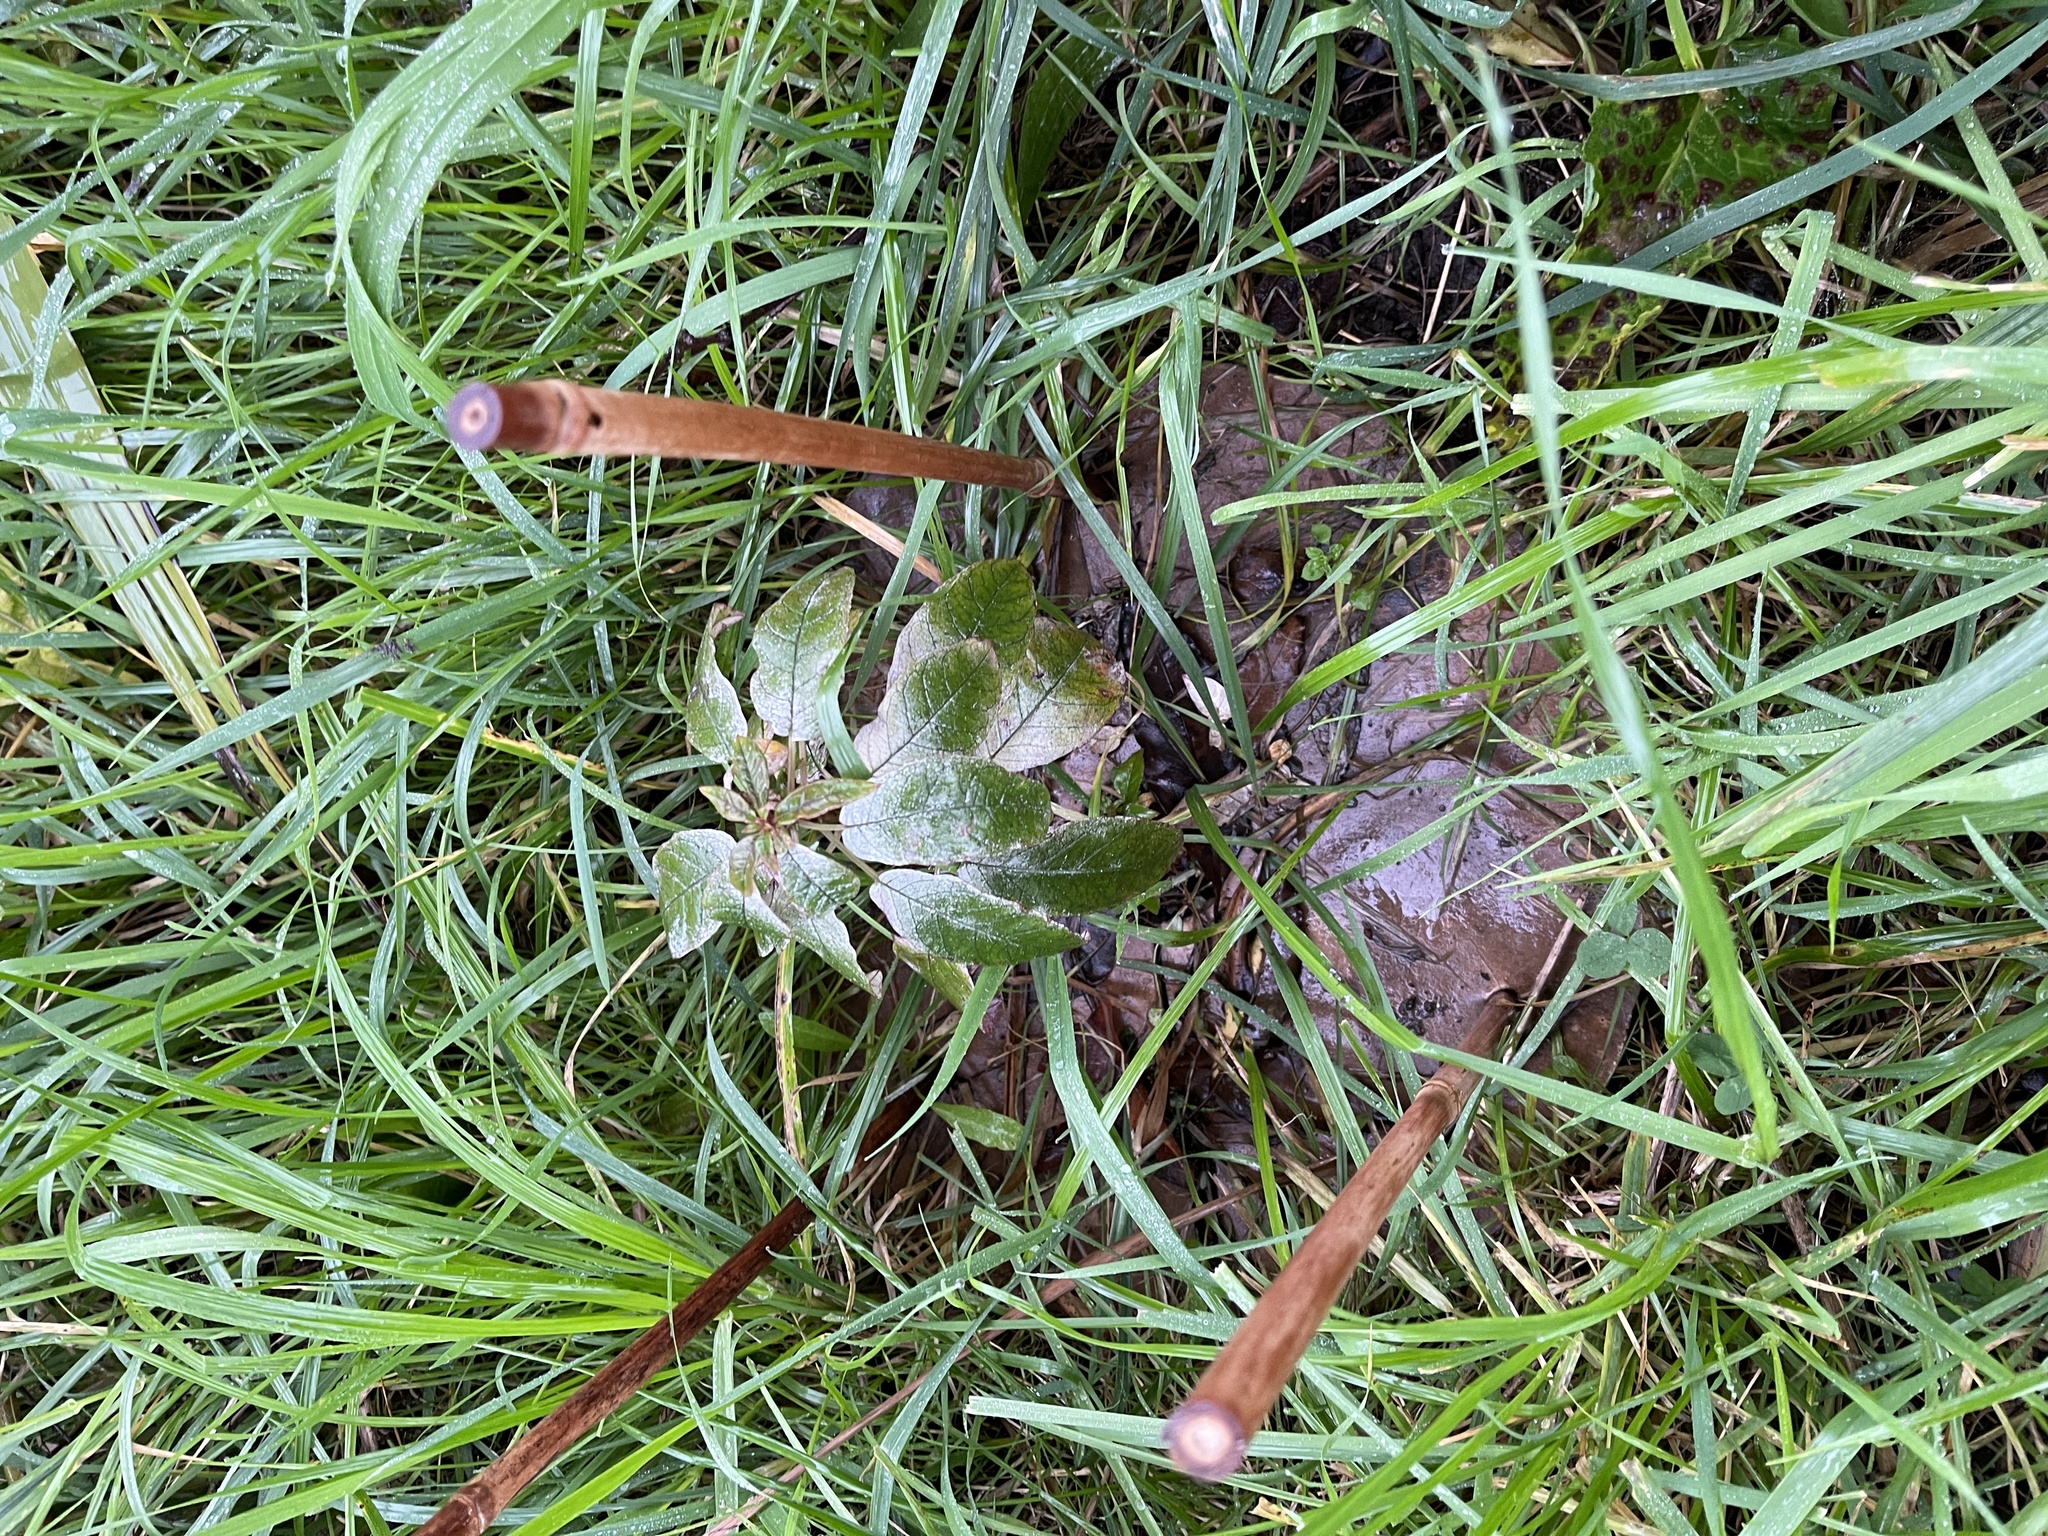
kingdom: Plantae
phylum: Tracheophyta
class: Magnoliopsida
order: Myrtales
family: Onagraceae
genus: Fuchsia
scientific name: Fuchsia excorticata
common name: Tree fuchsia
